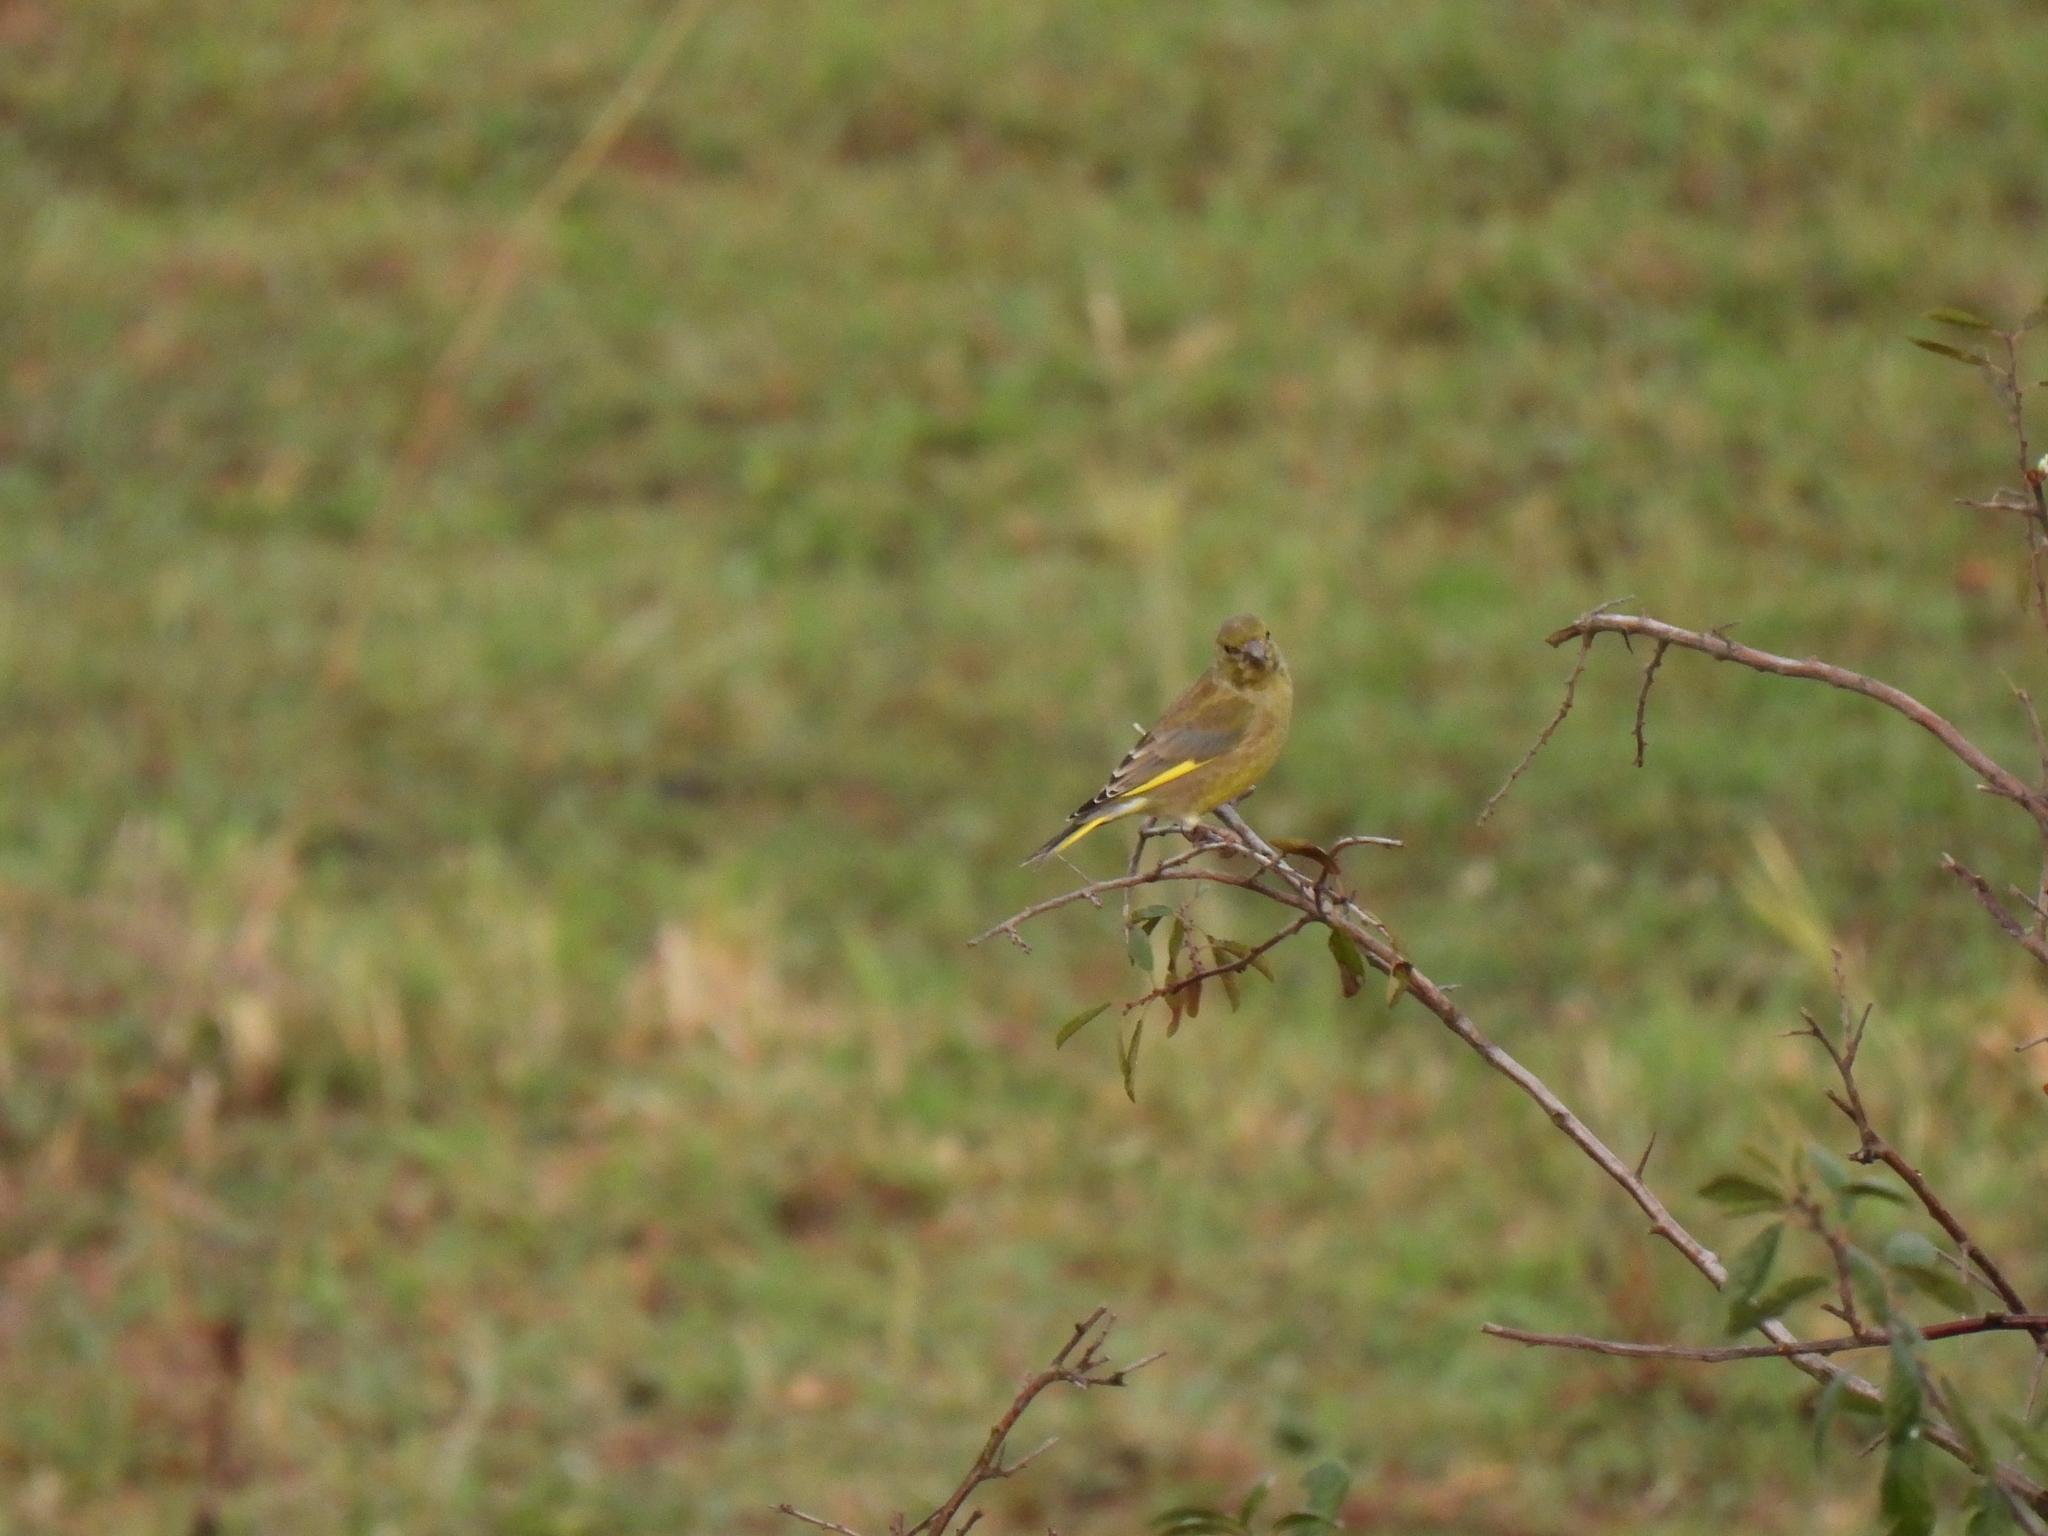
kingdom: Plantae
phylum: Tracheophyta
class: Liliopsida
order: Poales
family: Poaceae
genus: Chloris
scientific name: Chloris chloris
